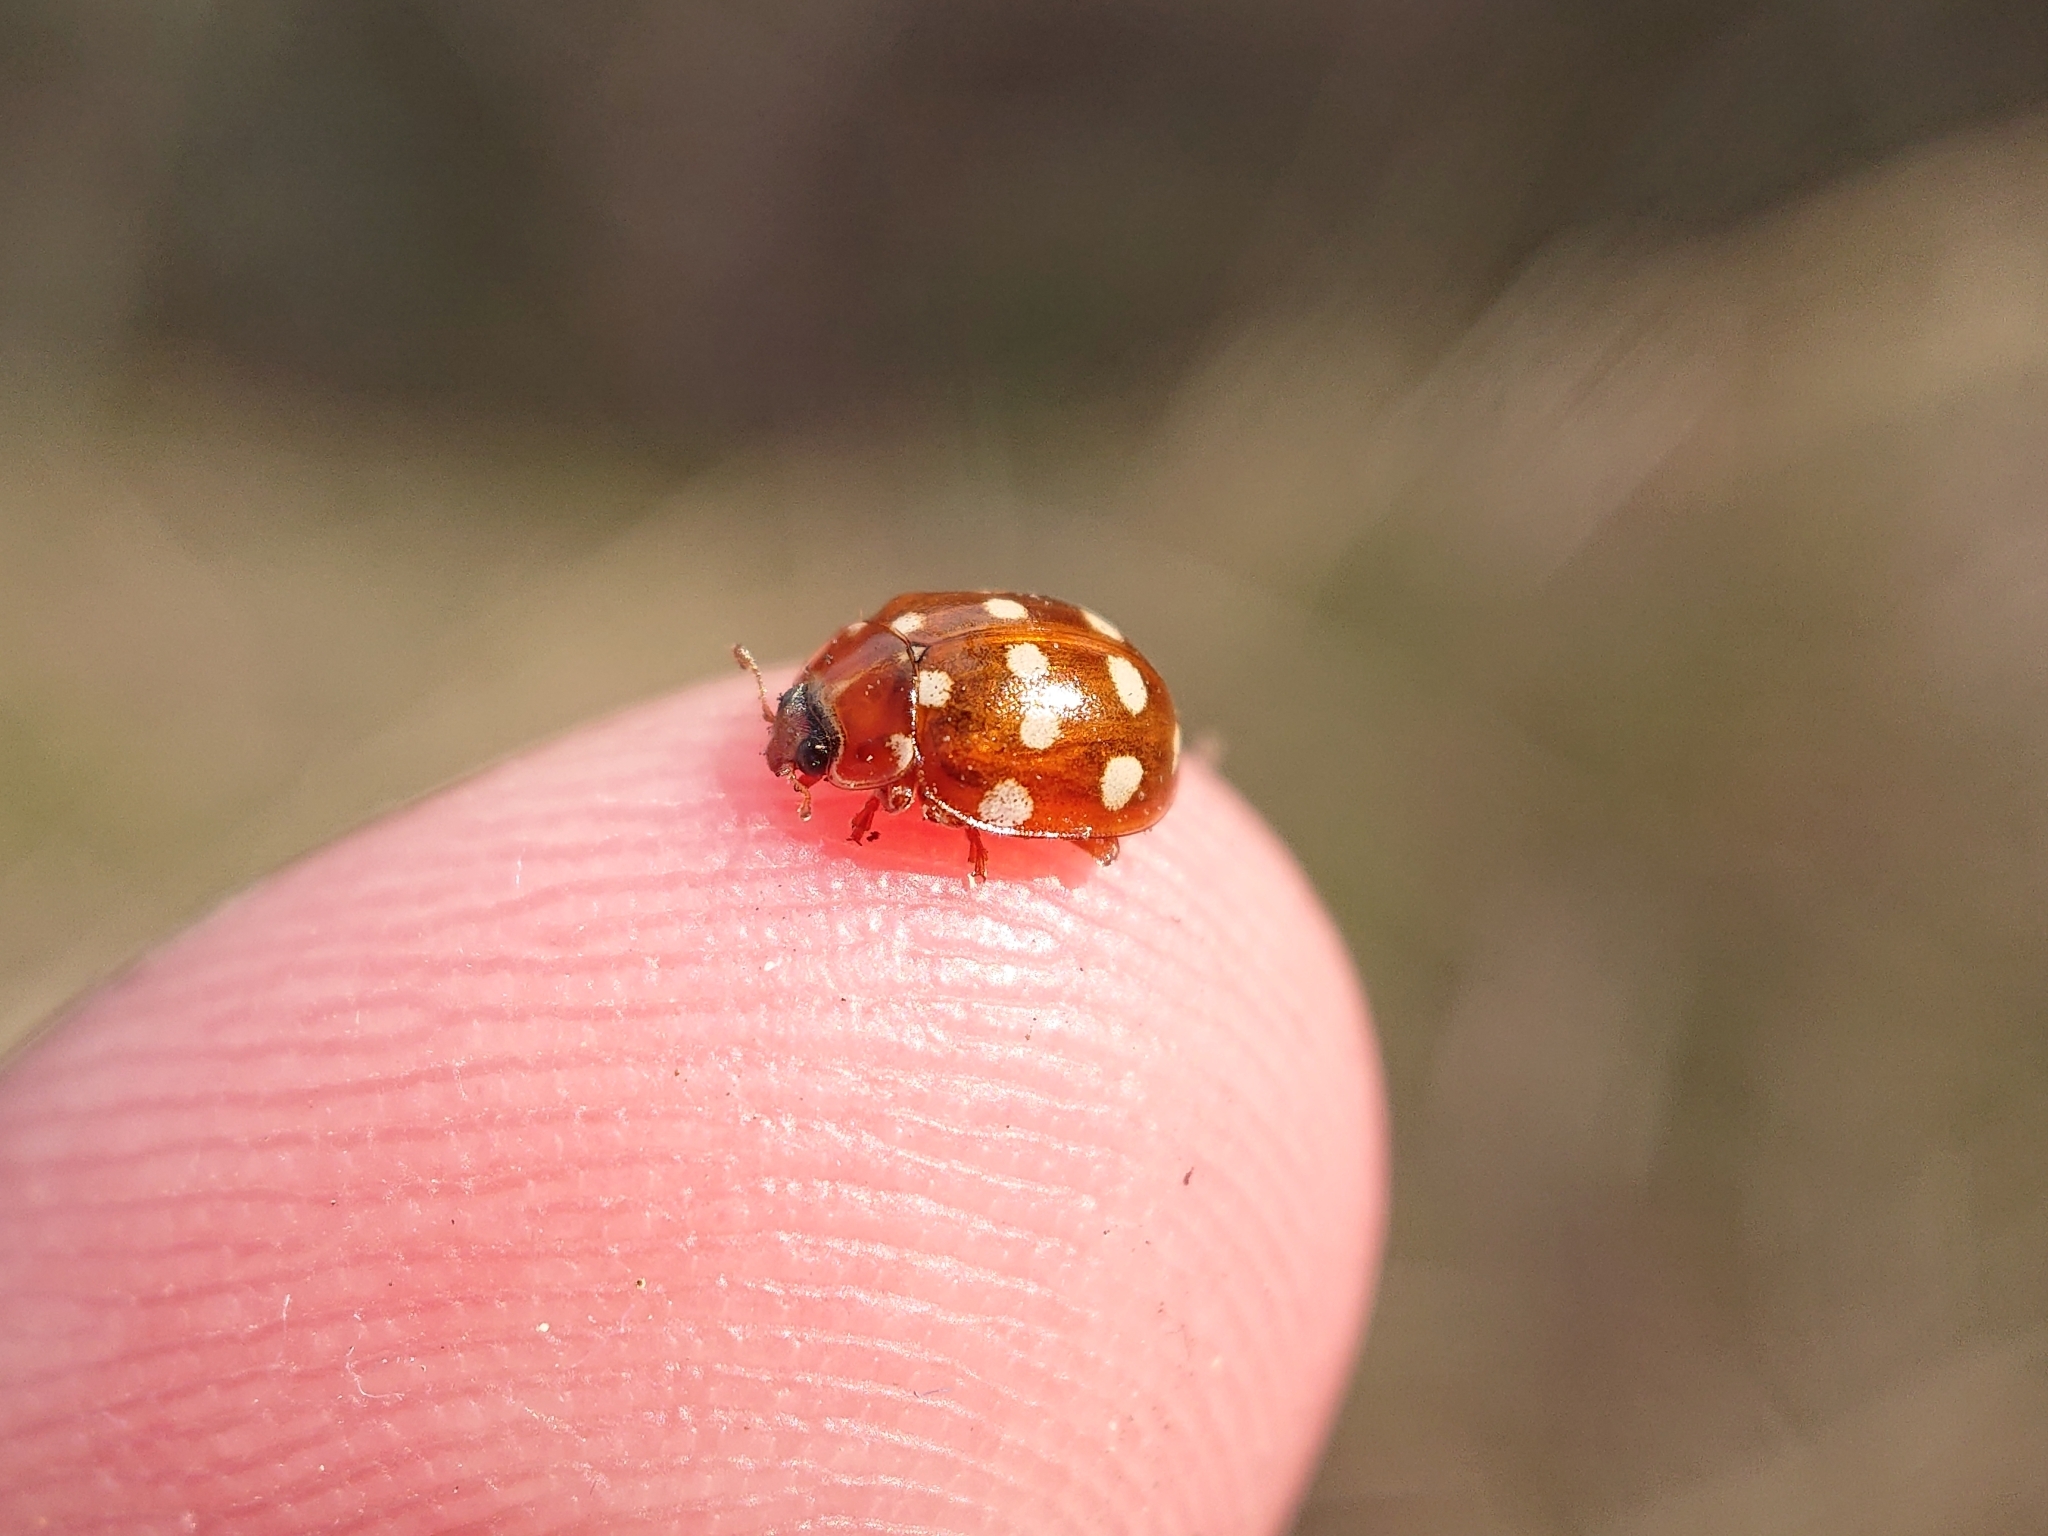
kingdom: Animalia
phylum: Arthropoda
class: Insecta
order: Coleoptera
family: Coccinellidae
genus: Calvia
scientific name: Calvia quatuordecimguttata
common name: Cream-spot ladybird
